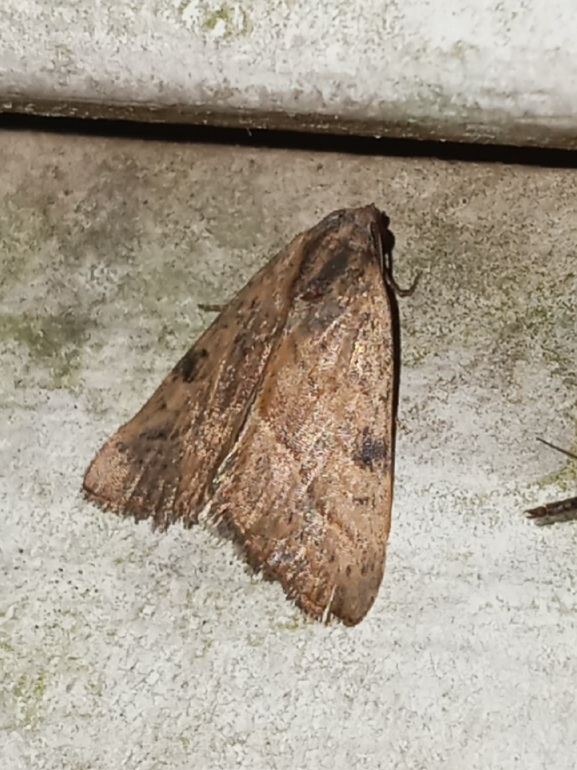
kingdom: Animalia
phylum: Arthropoda
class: Insecta
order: Lepidoptera
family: Noctuidae
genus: Galgula
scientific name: Galgula partita
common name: Wedgeling
